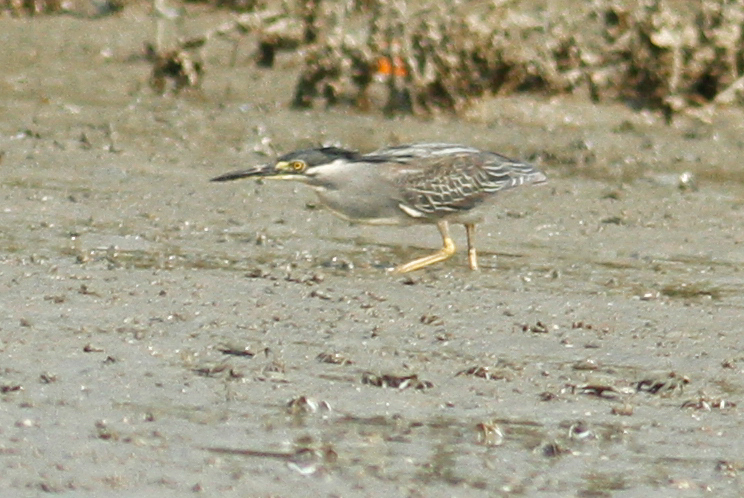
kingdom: Animalia
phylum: Chordata
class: Aves
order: Pelecaniformes
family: Ardeidae
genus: Butorides
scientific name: Butorides striata
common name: Striated heron
